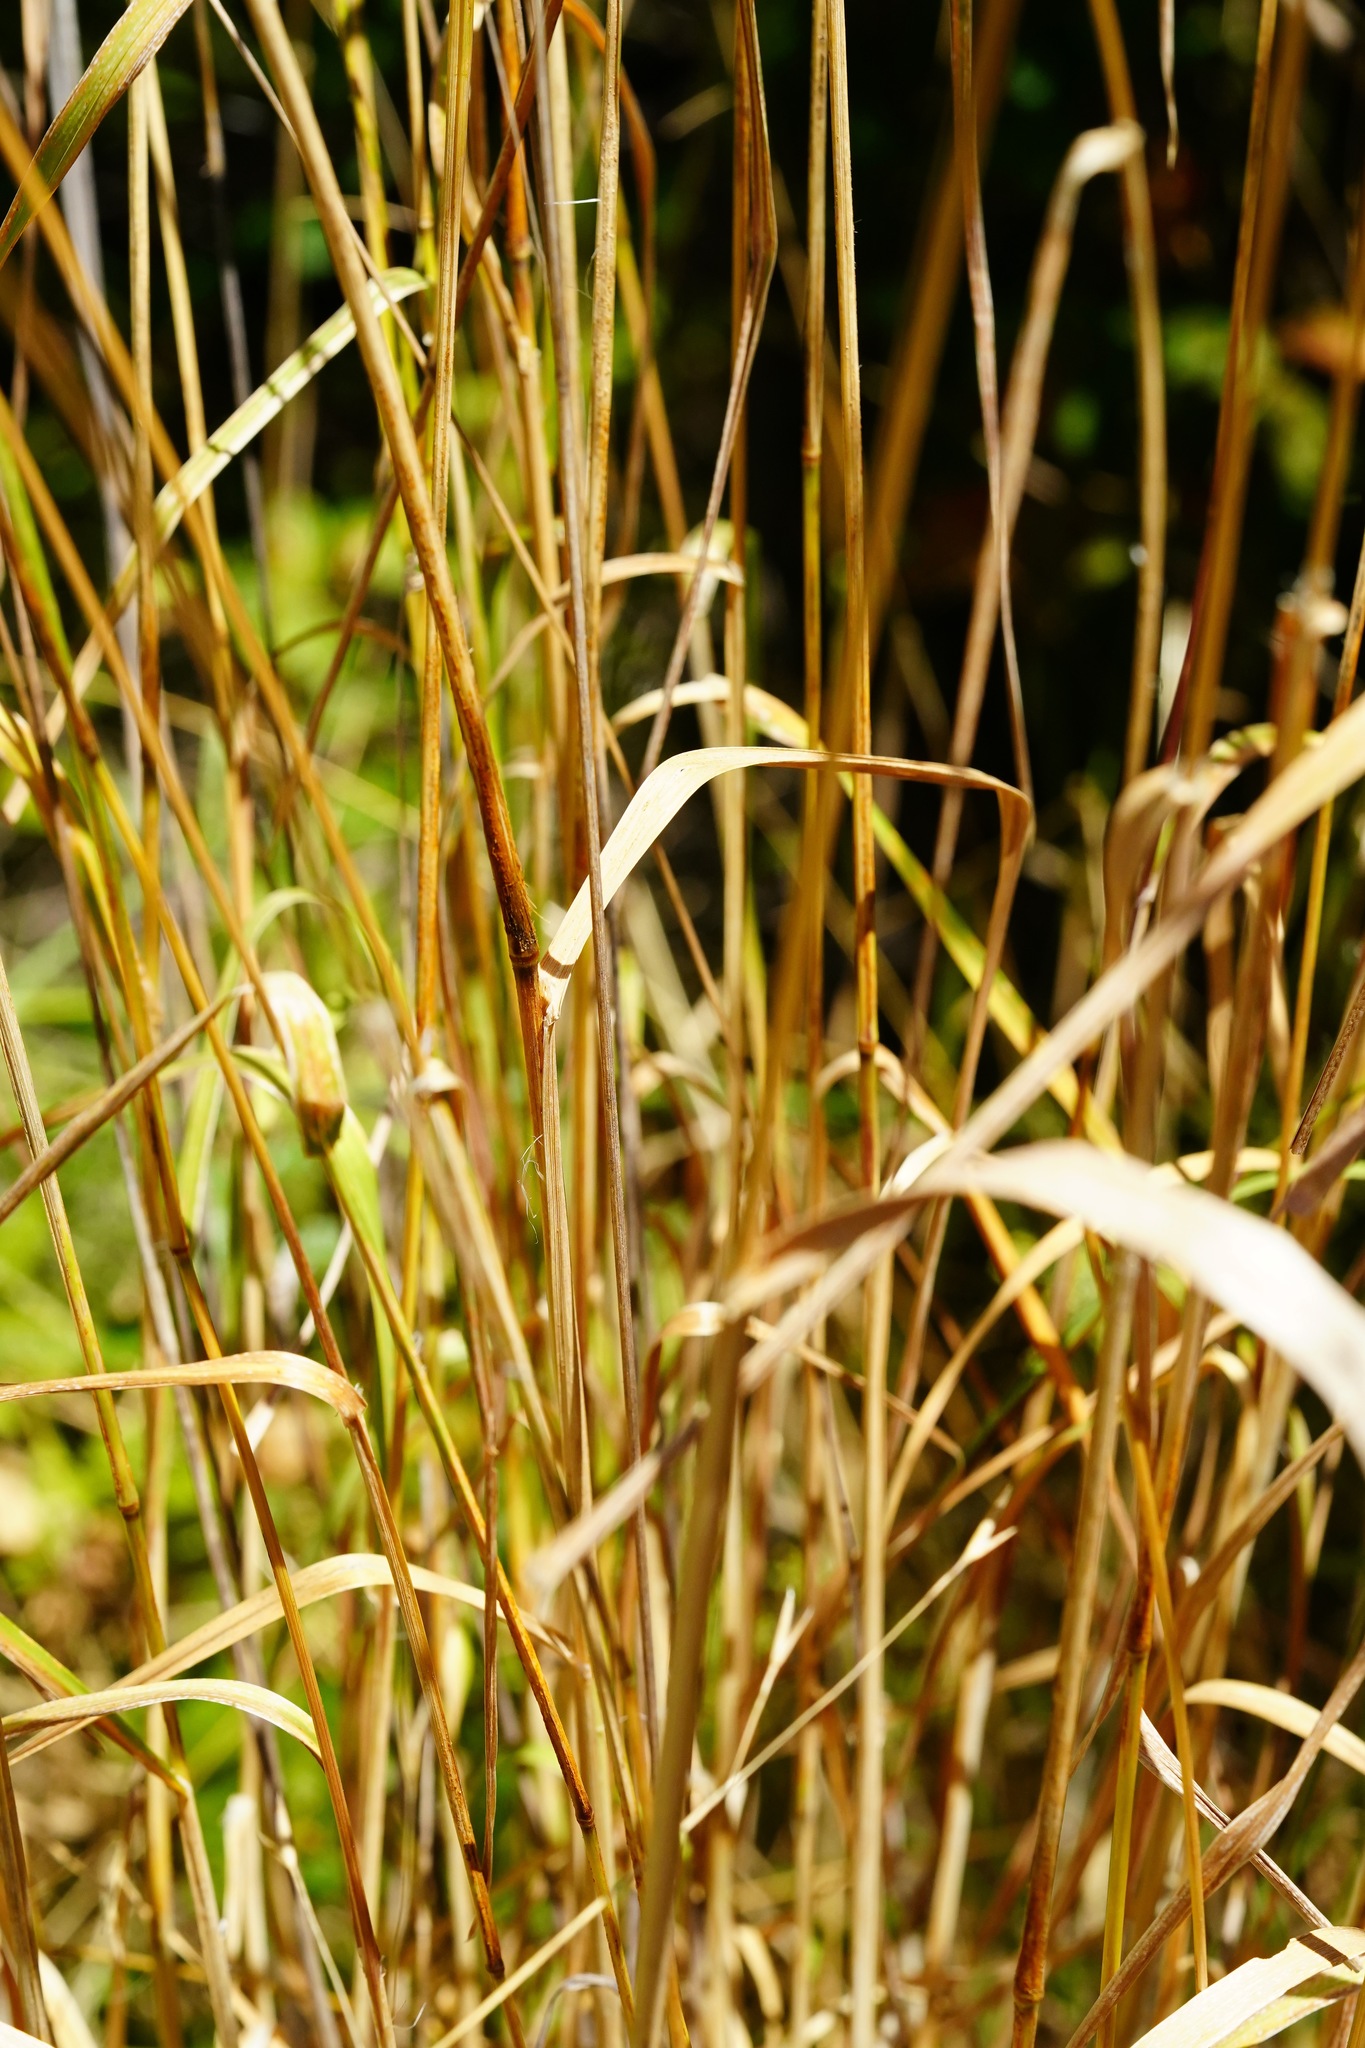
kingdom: Plantae
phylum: Tracheophyta
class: Liliopsida
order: Poales
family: Poaceae
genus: Dactylis
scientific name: Dactylis glomerata
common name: Orchardgrass
